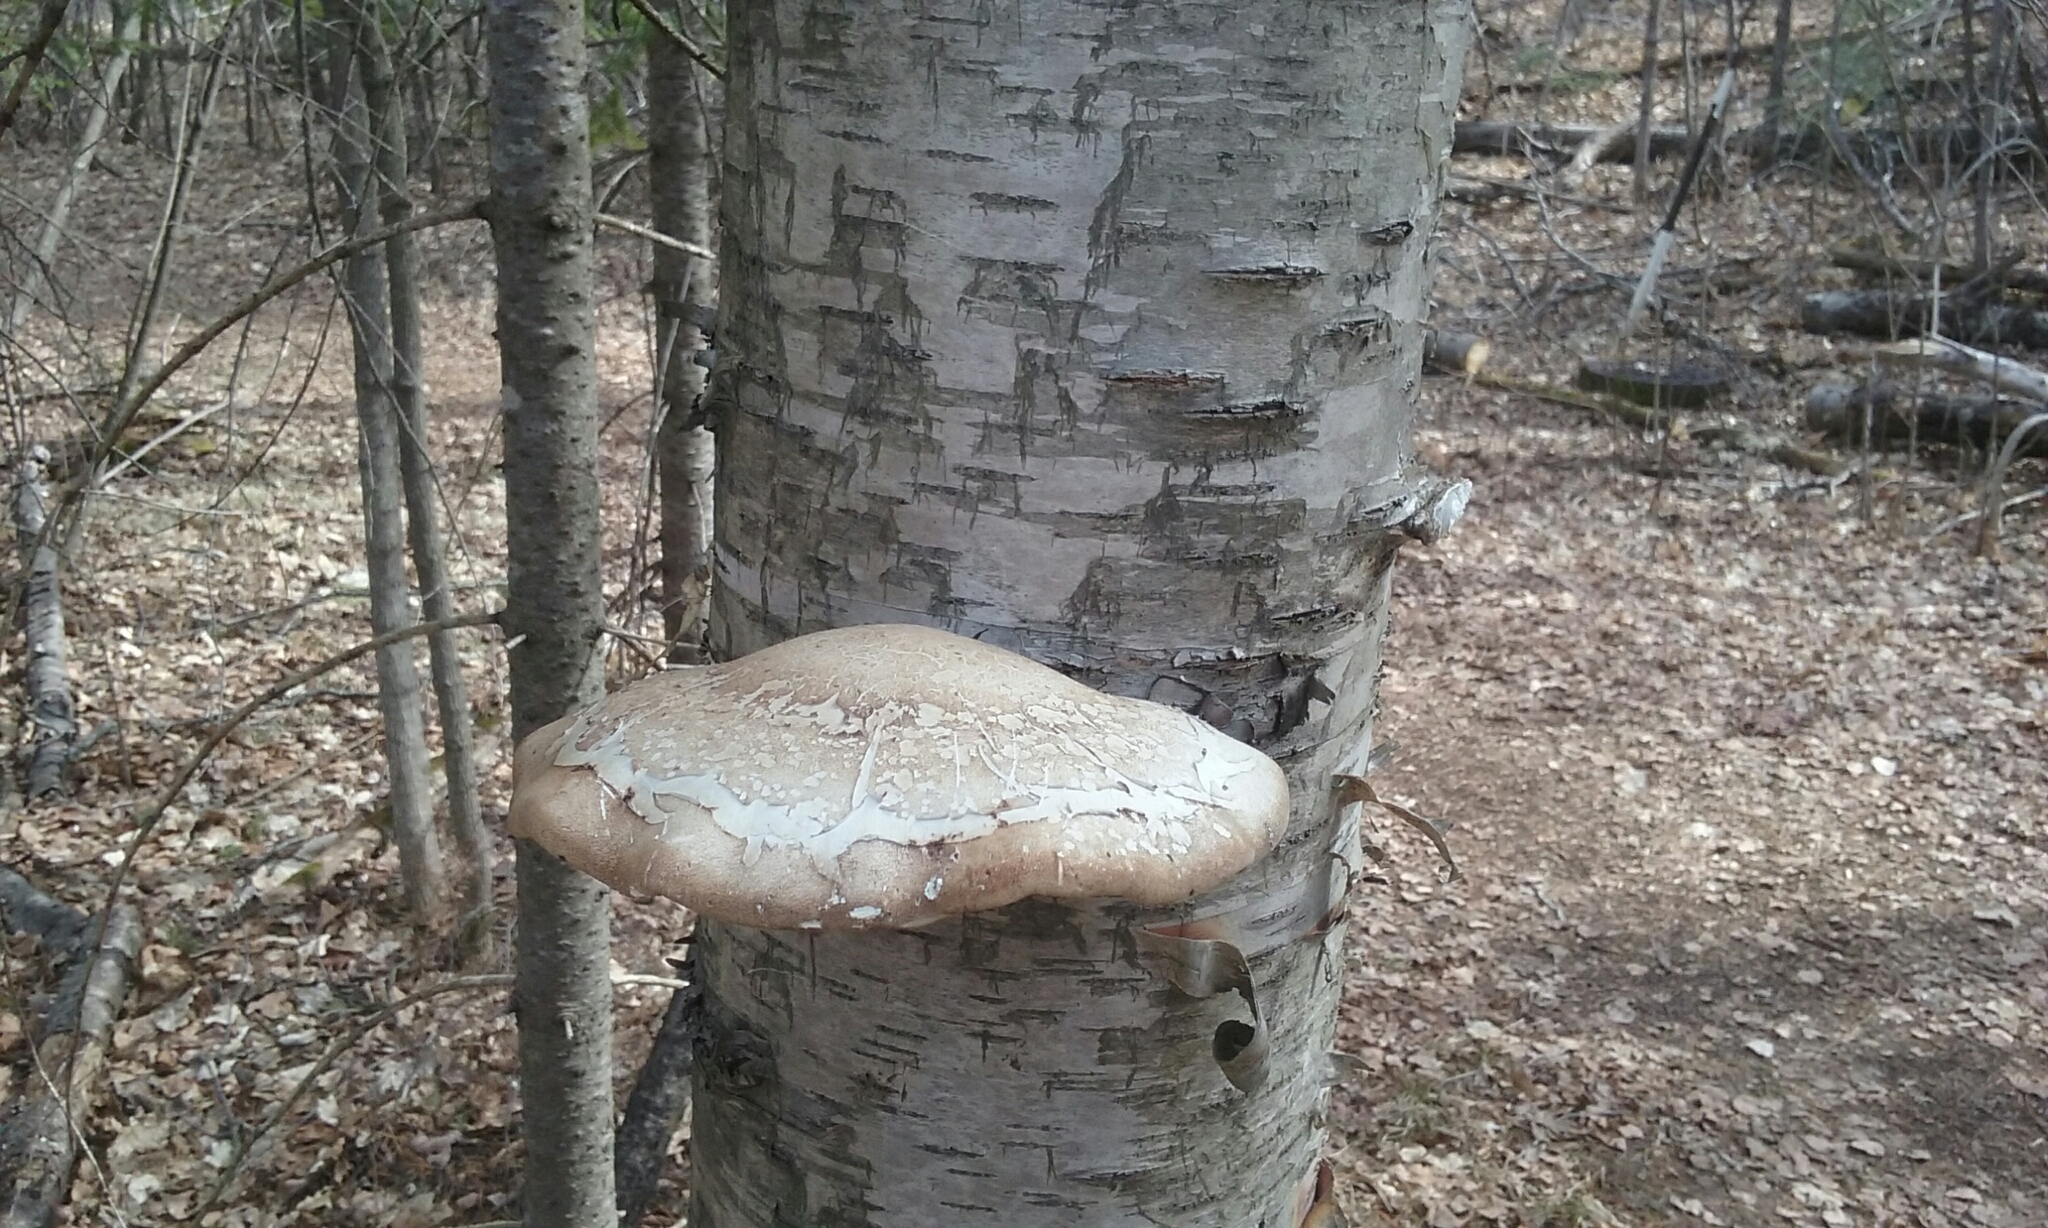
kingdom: Fungi
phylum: Basidiomycota
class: Agaricomycetes
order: Polyporales
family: Fomitopsidaceae
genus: Fomitopsis
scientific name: Fomitopsis betulina
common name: Birch polypore
